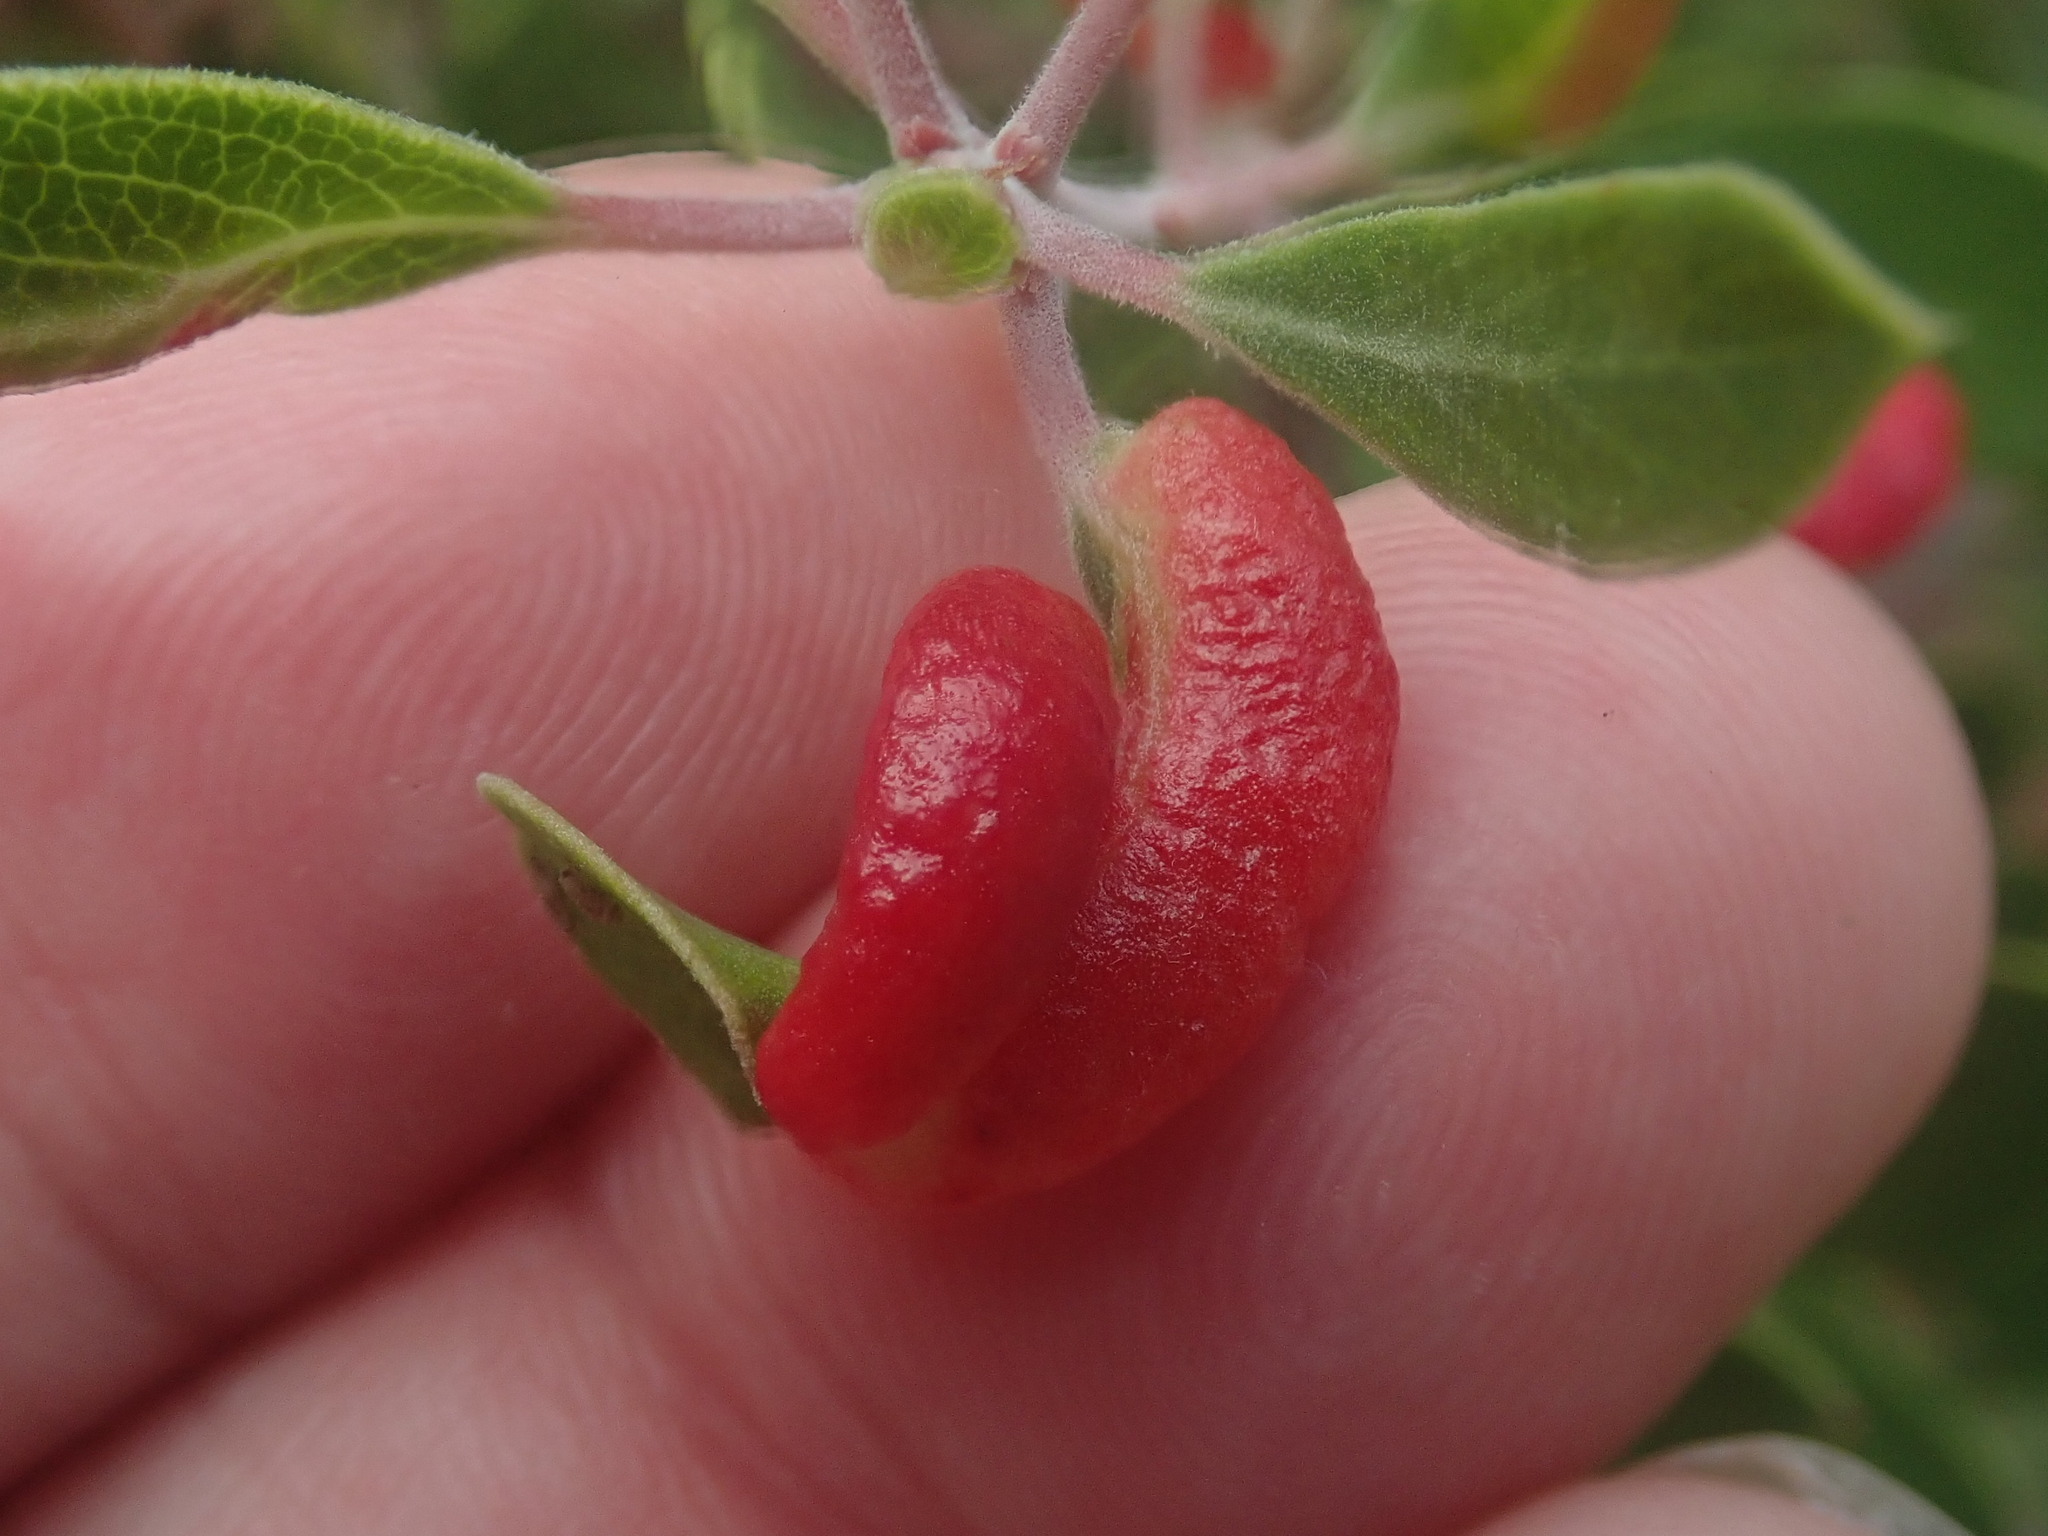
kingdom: Animalia
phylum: Arthropoda
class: Insecta
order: Hemiptera
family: Aphididae
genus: Tamalia
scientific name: Tamalia coweni
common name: Manzanita leafgall aphid
